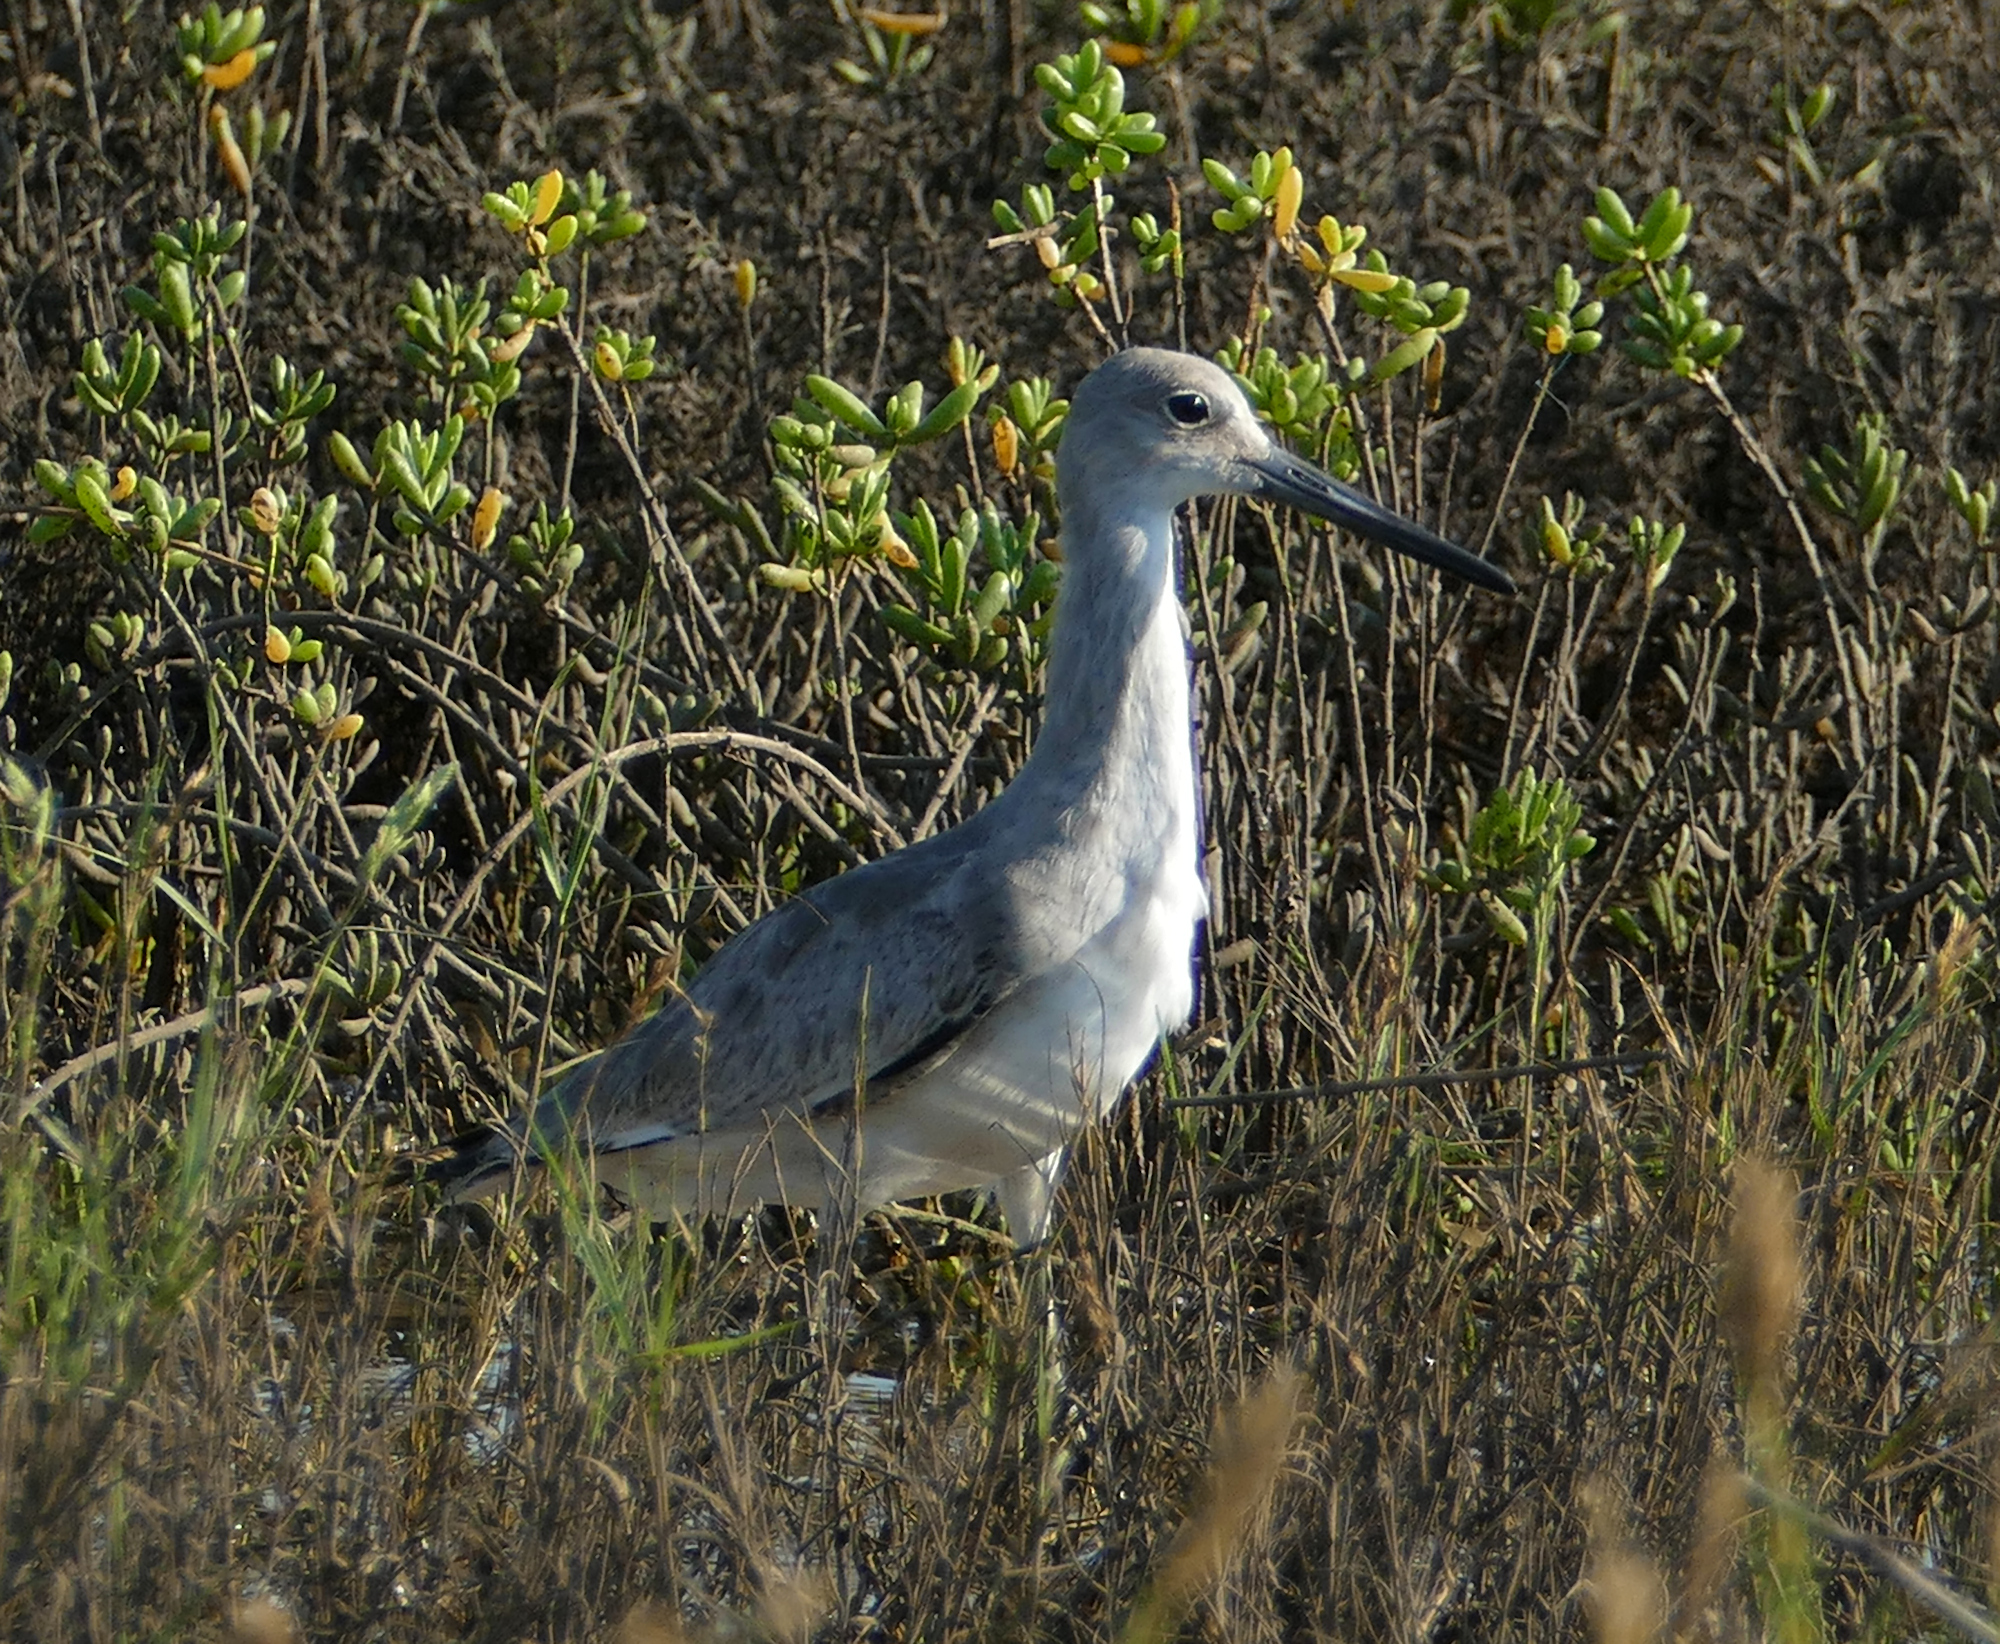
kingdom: Animalia
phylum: Chordata
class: Aves
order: Charadriiformes
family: Scolopacidae
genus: Tringa
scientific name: Tringa semipalmata
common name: Willet
